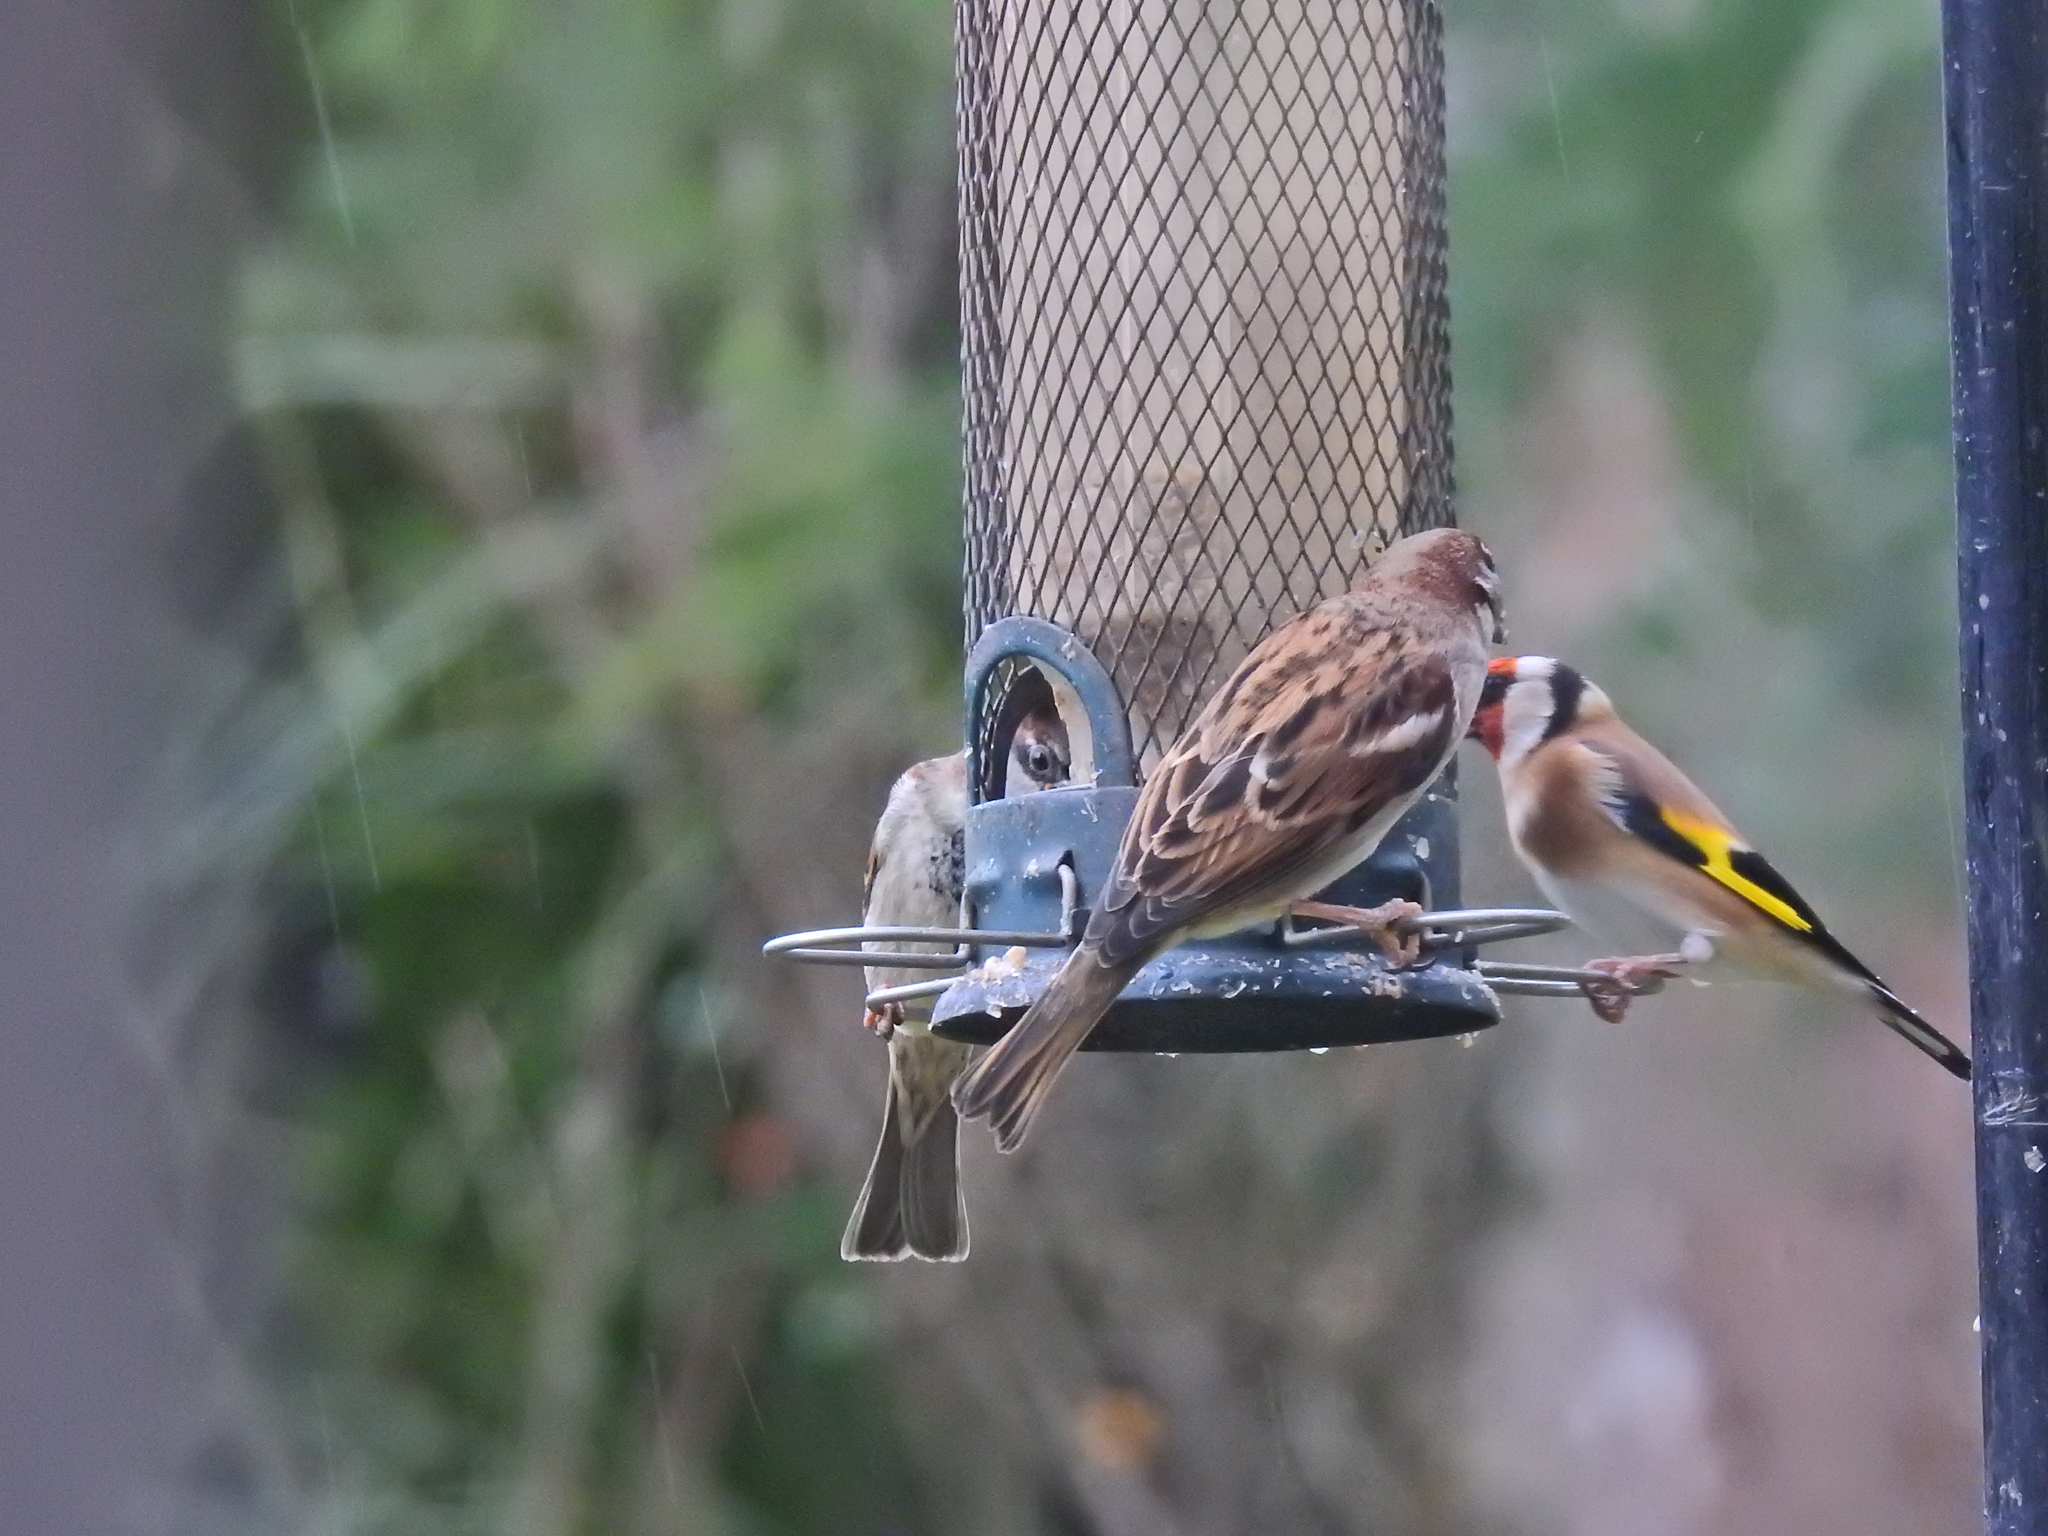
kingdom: Animalia
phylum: Chordata
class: Aves
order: Passeriformes
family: Passeridae
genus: Passer
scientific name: Passer domesticus
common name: House sparrow
